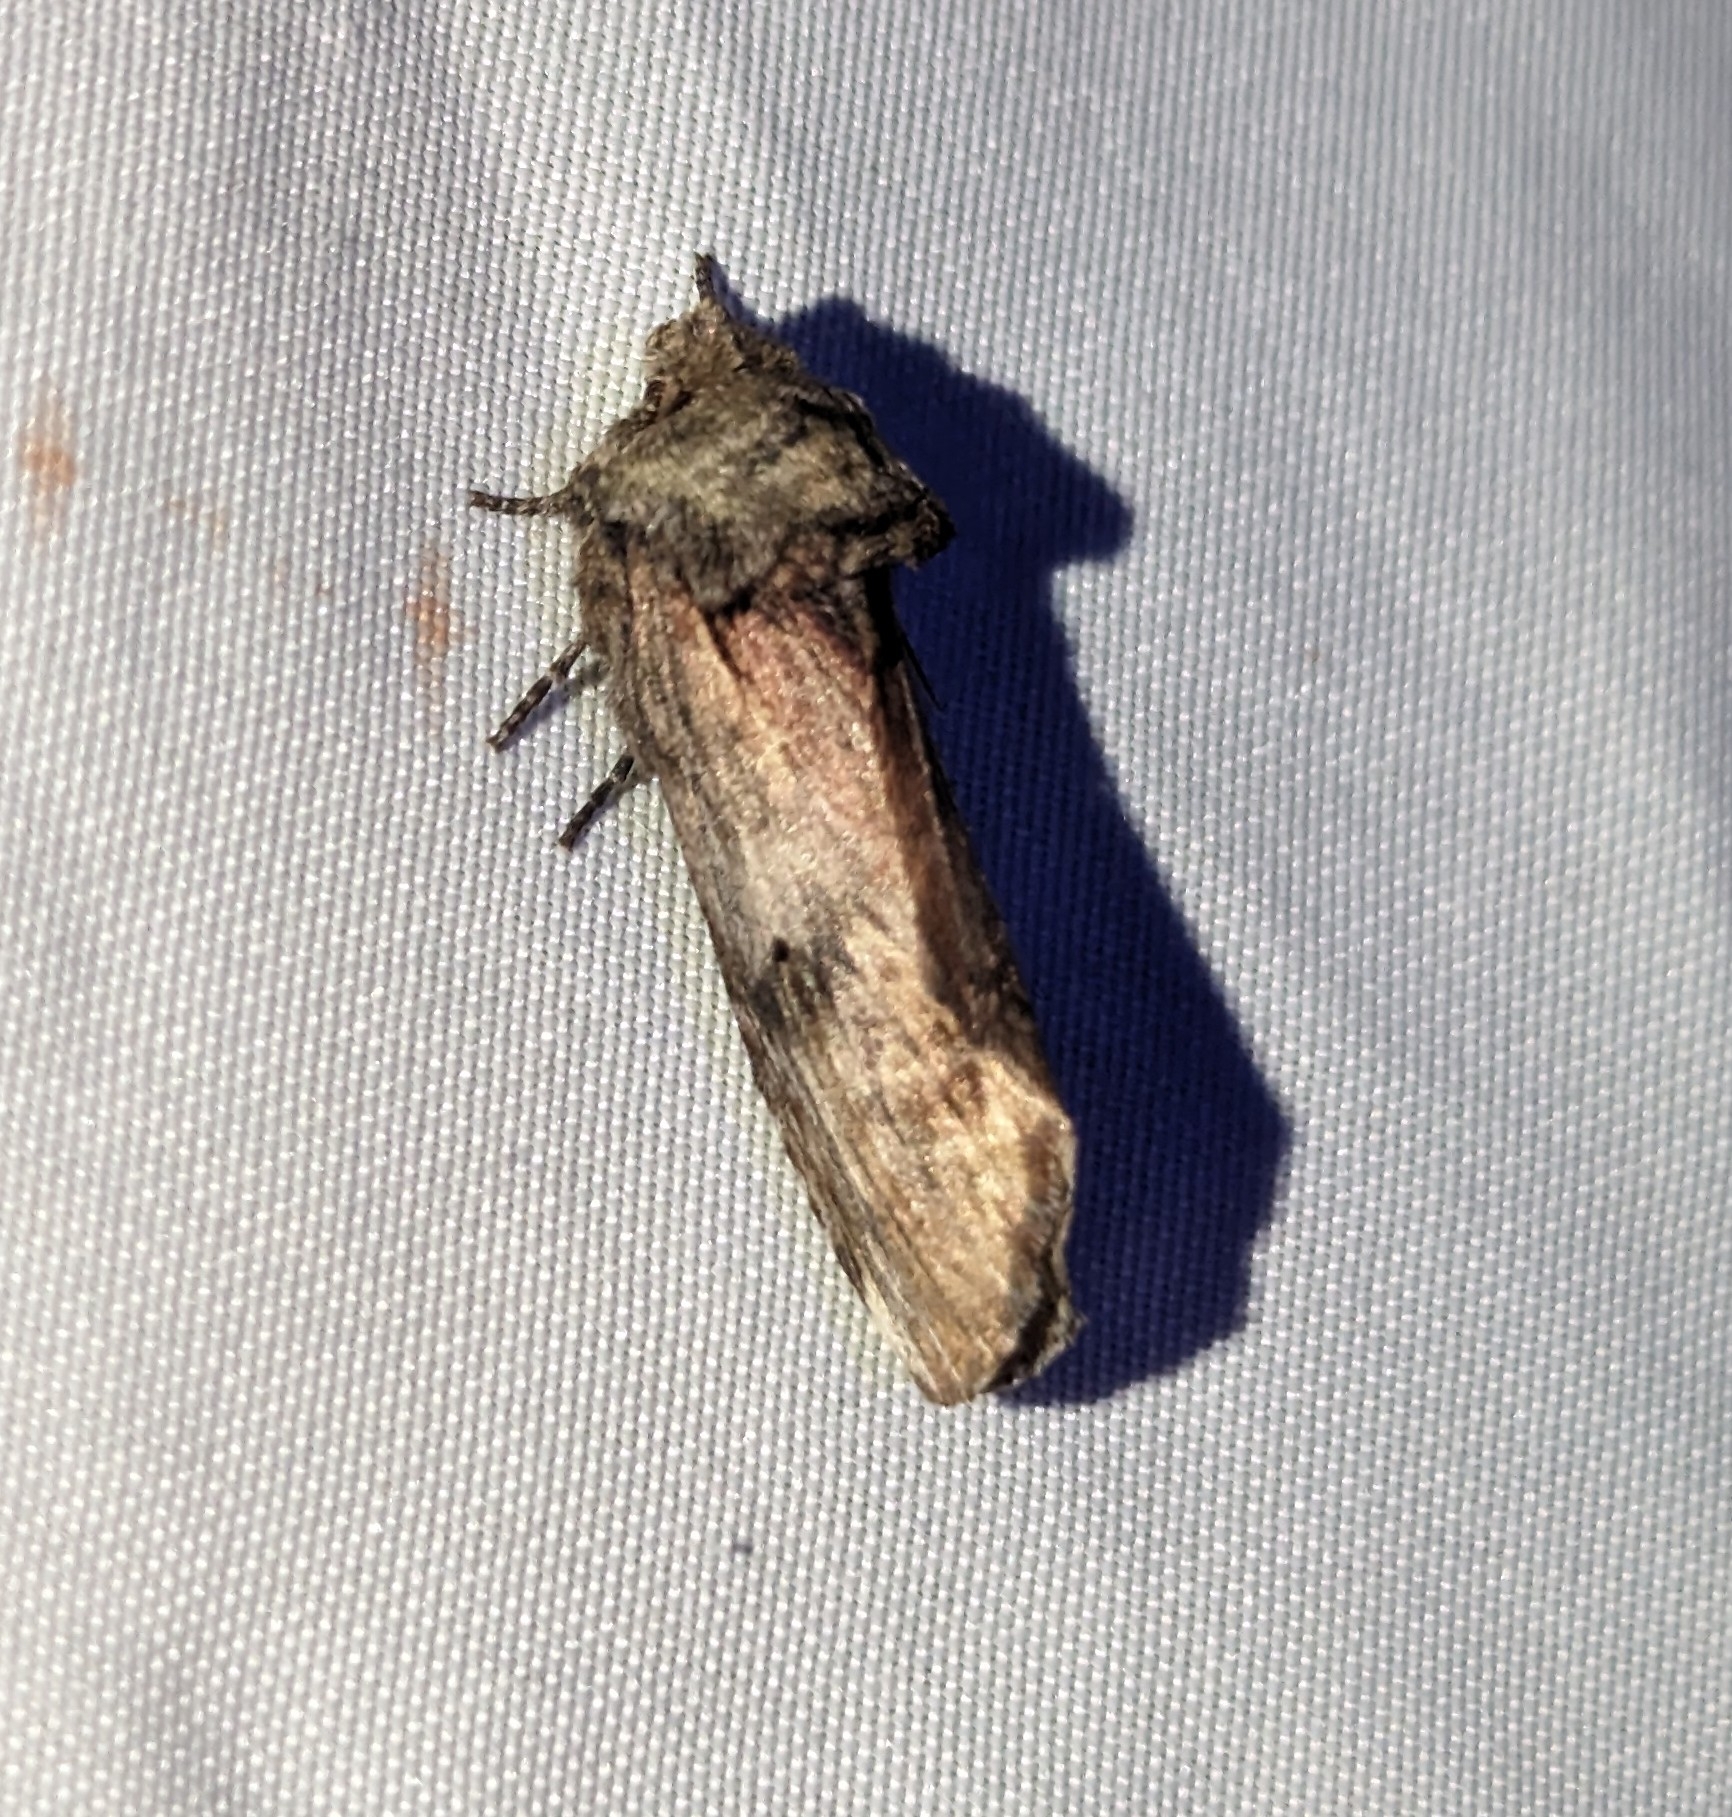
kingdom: Animalia
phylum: Arthropoda
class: Insecta
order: Lepidoptera
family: Notodontidae
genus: Schizura
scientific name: Schizura
